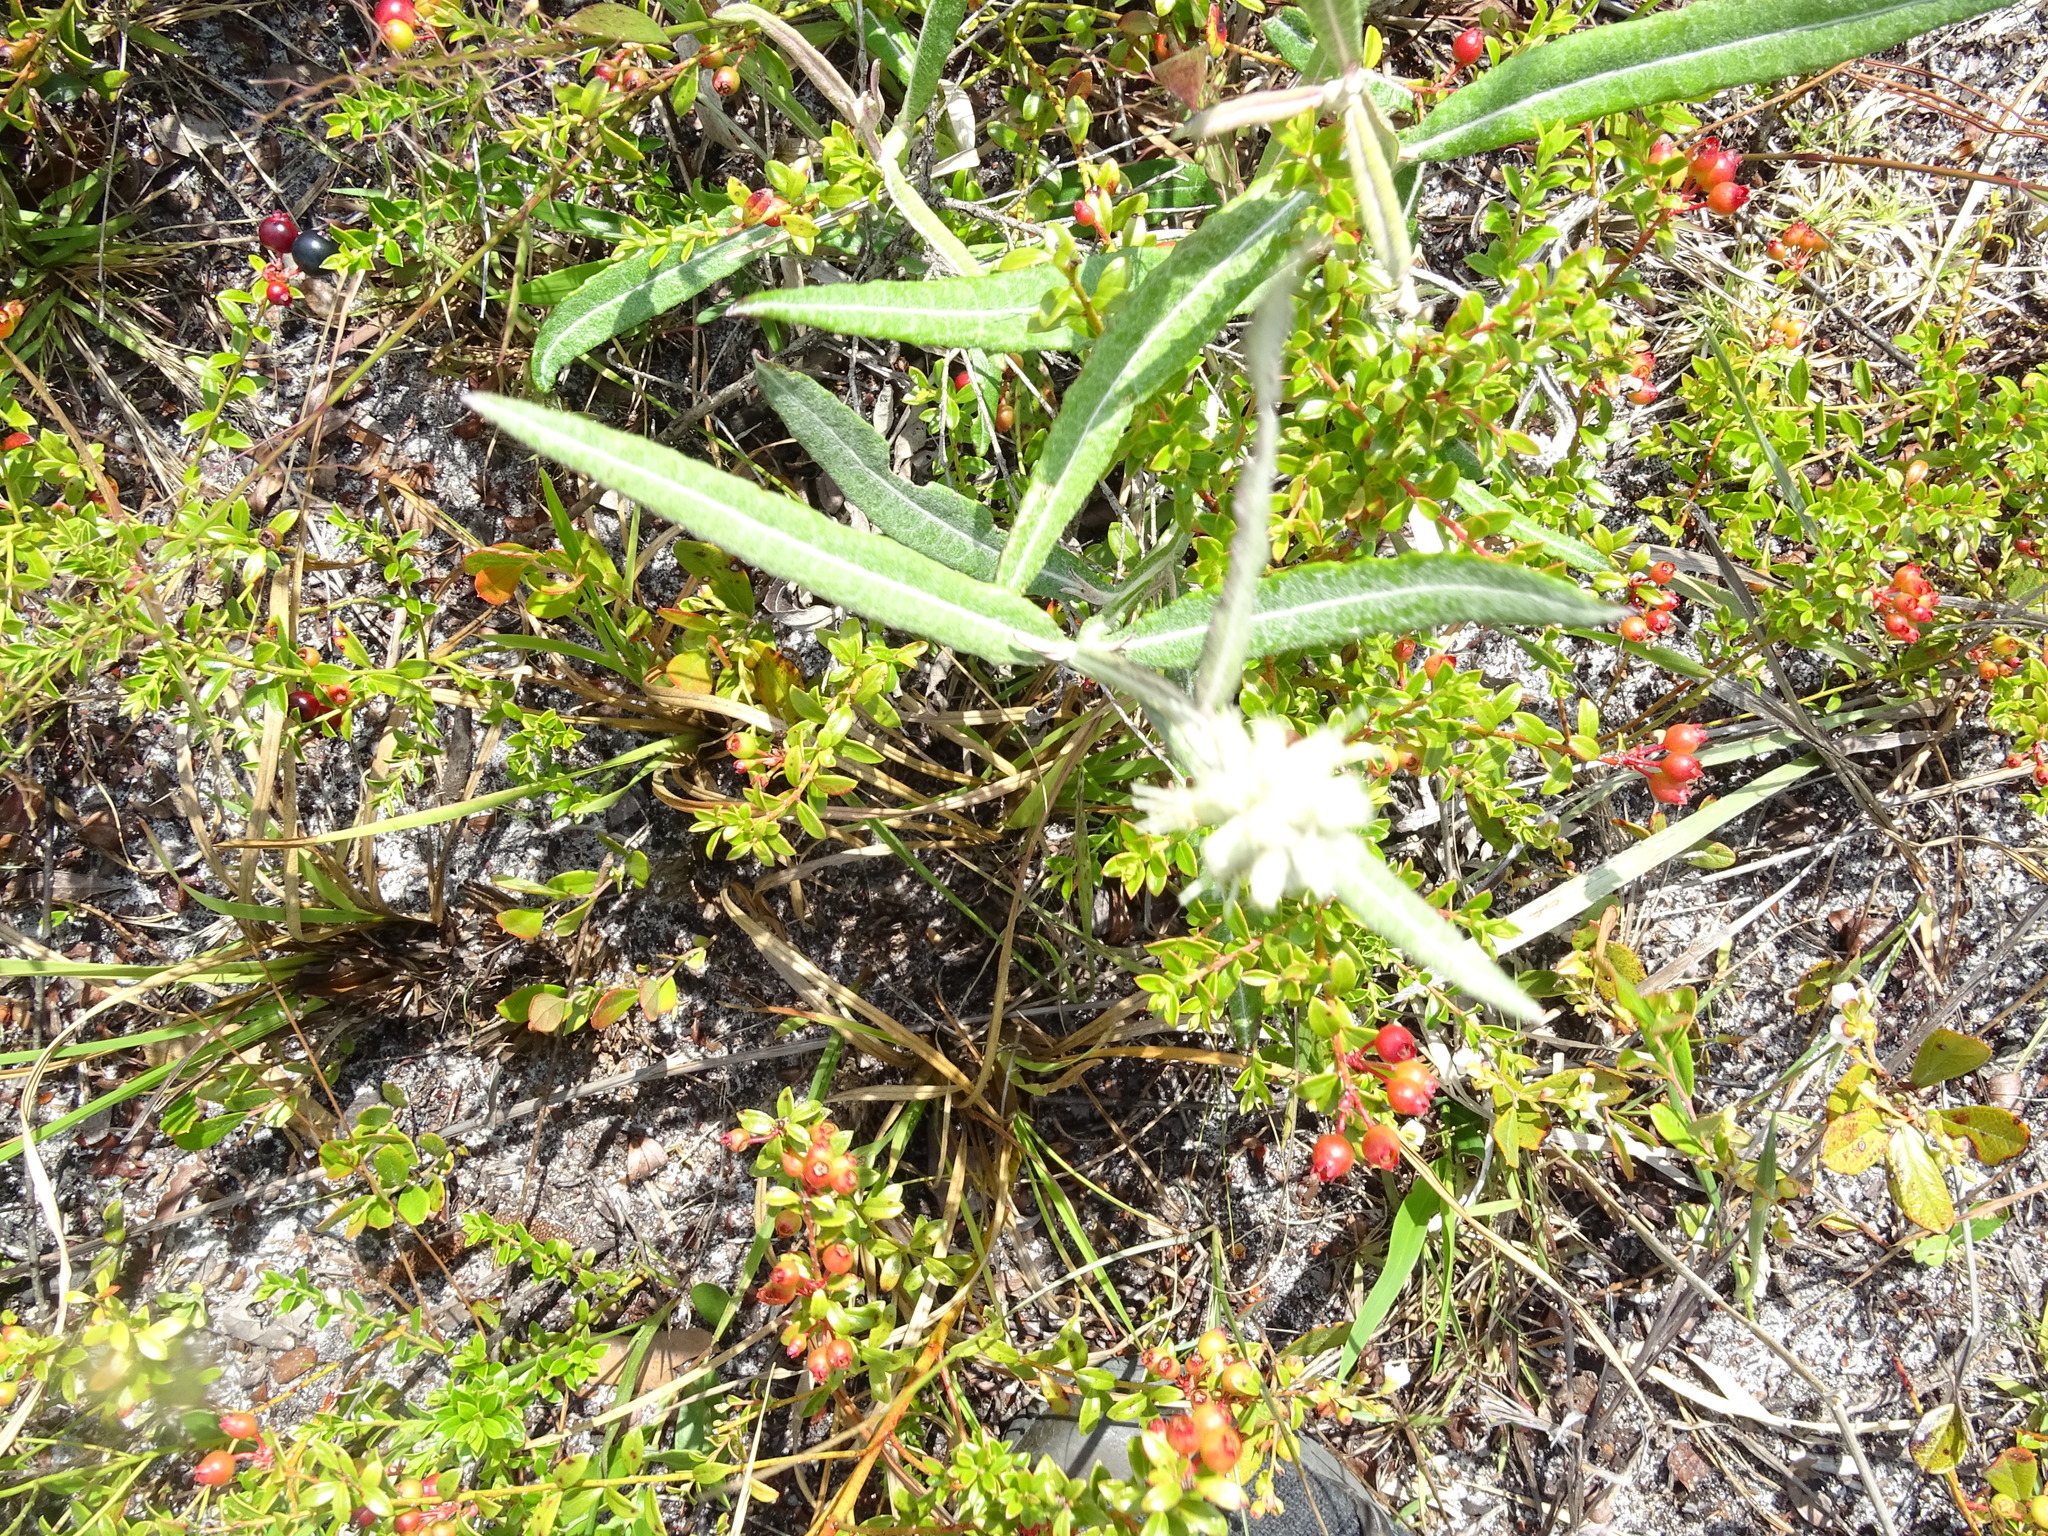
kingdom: Plantae
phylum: Tracheophyta
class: Magnoliopsida
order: Asterales
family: Asteraceae
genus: Pterocaulon
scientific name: Pterocaulon pycnostachyum
